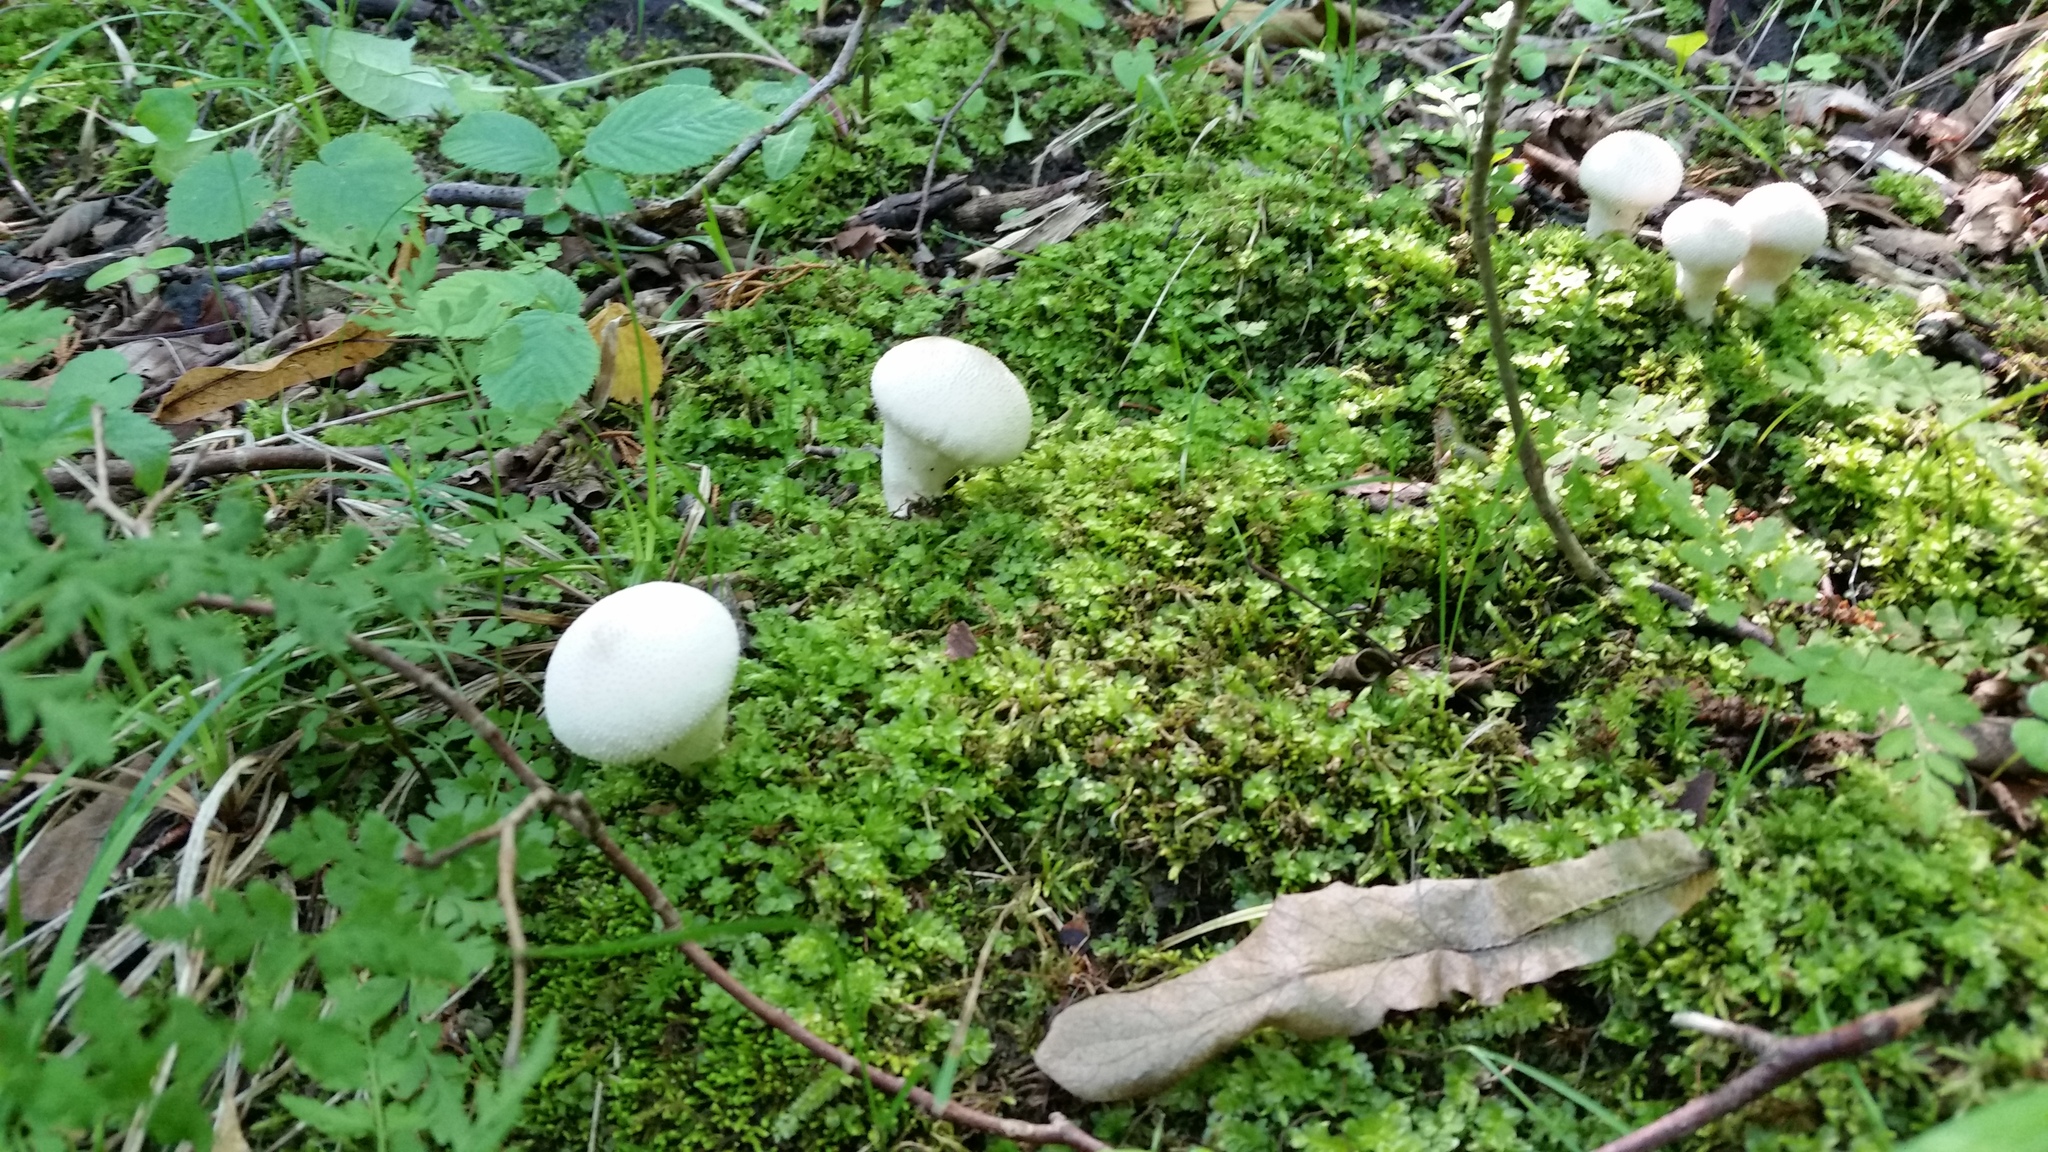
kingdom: Fungi
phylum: Basidiomycota
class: Agaricomycetes
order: Agaricales
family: Lycoperdaceae
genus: Lycoperdon
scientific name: Lycoperdon perlatum
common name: Common puffball
